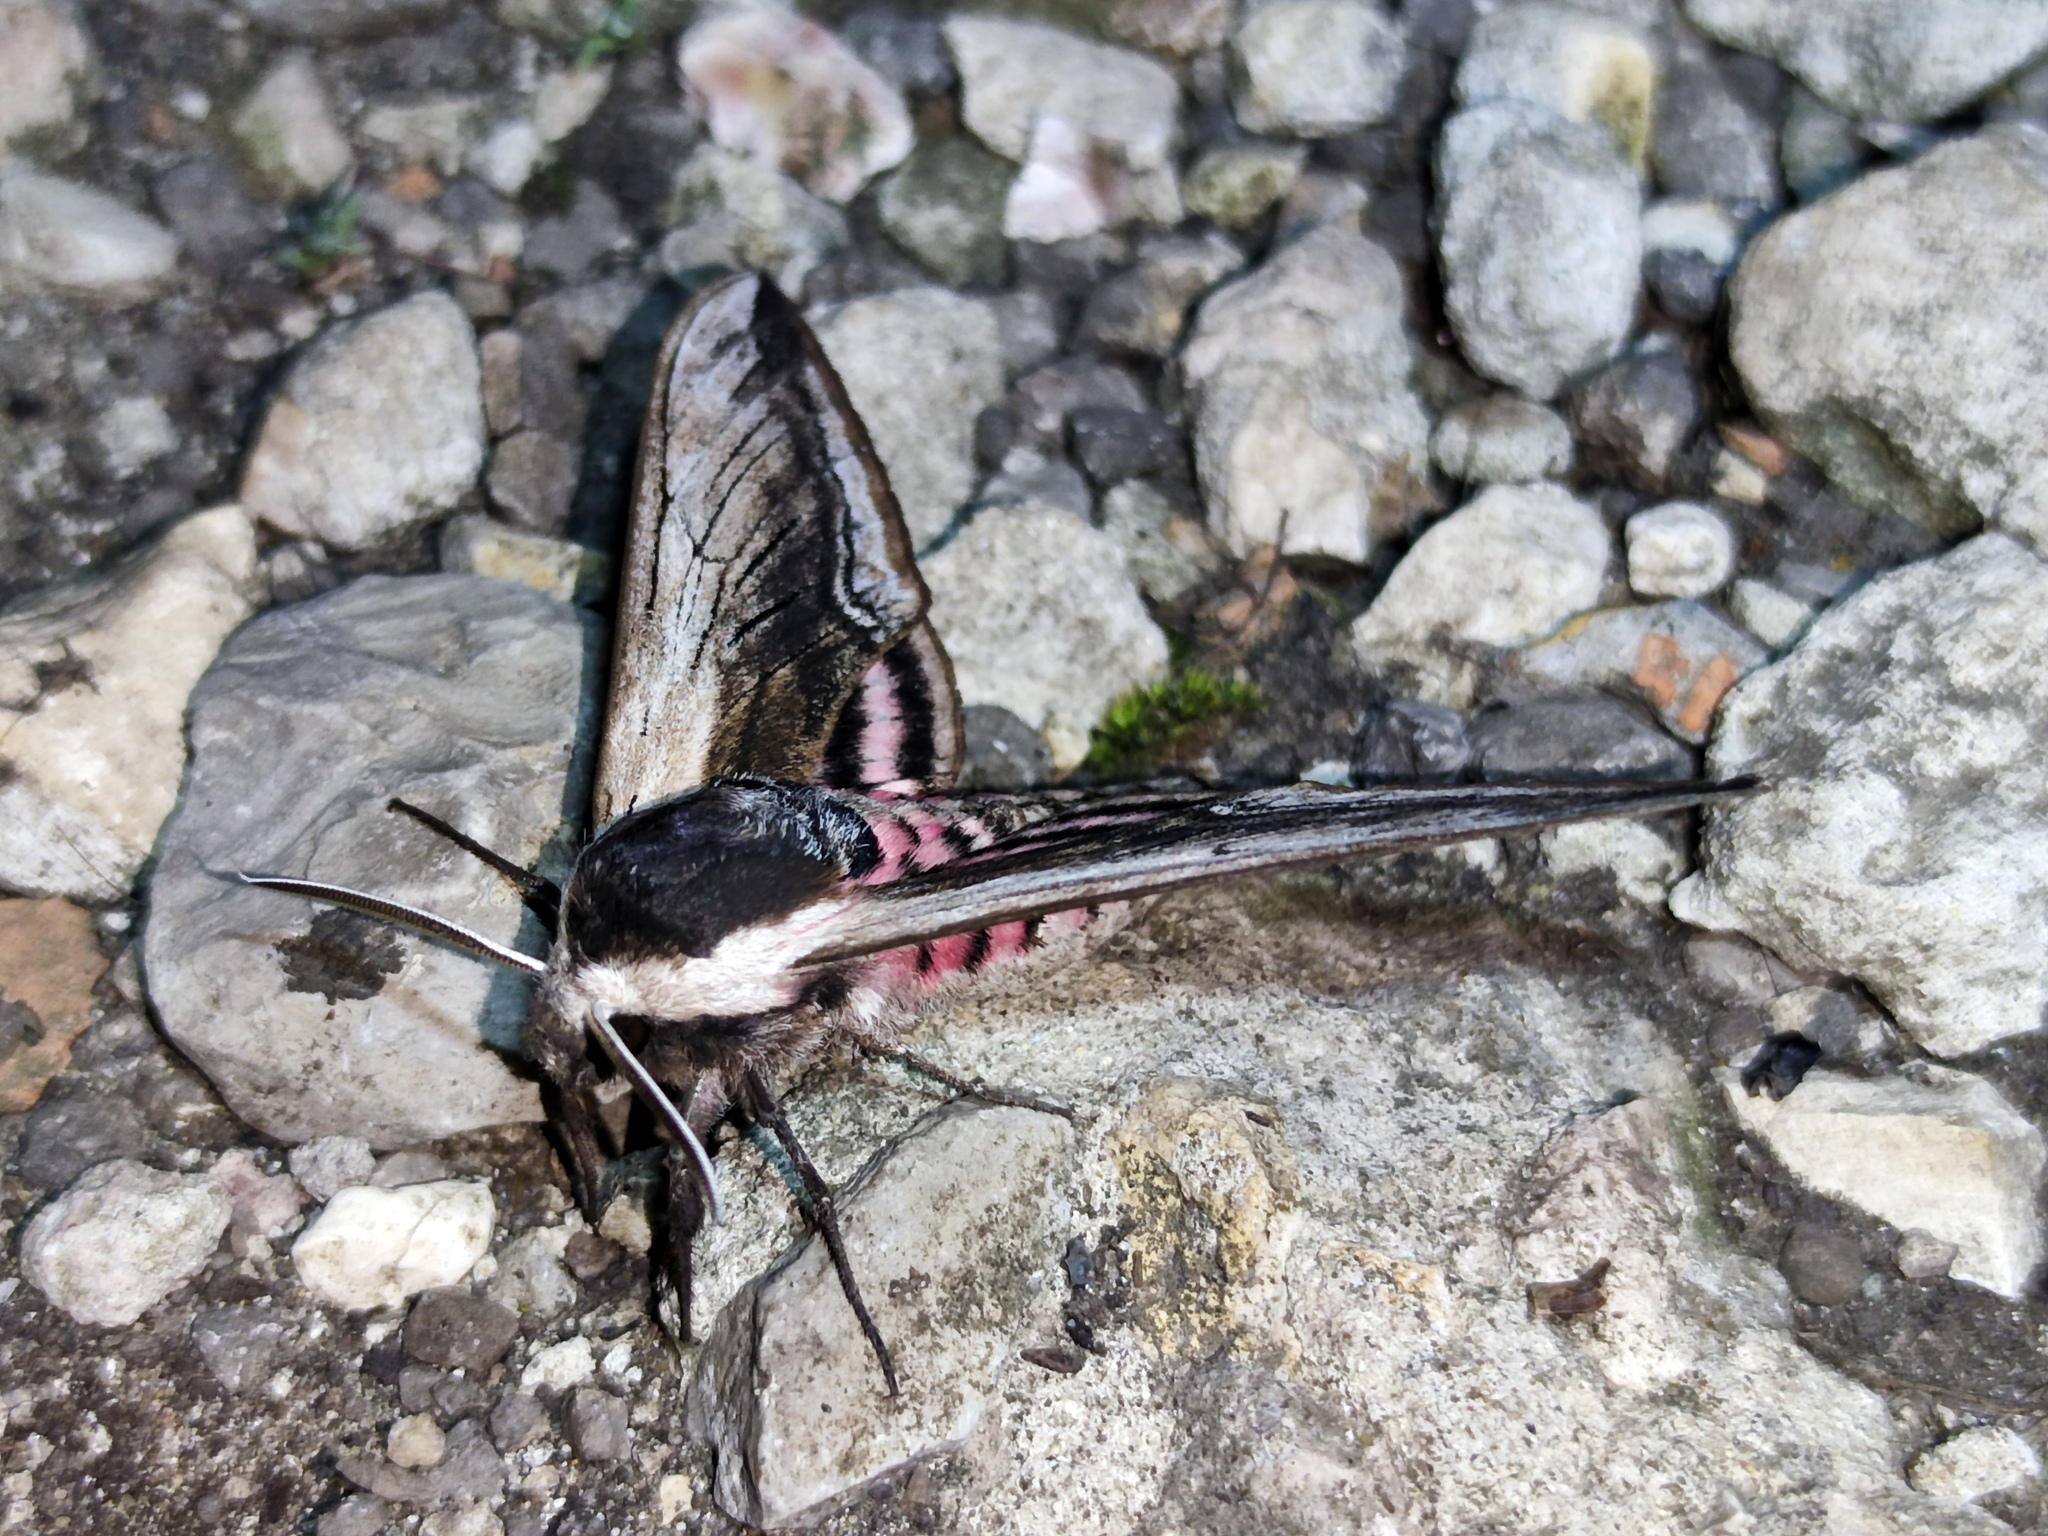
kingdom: Animalia
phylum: Arthropoda
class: Insecta
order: Lepidoptera
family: Sphingidae
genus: Sphinx
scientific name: Sphinx ligustri
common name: Privet hawk-moth
